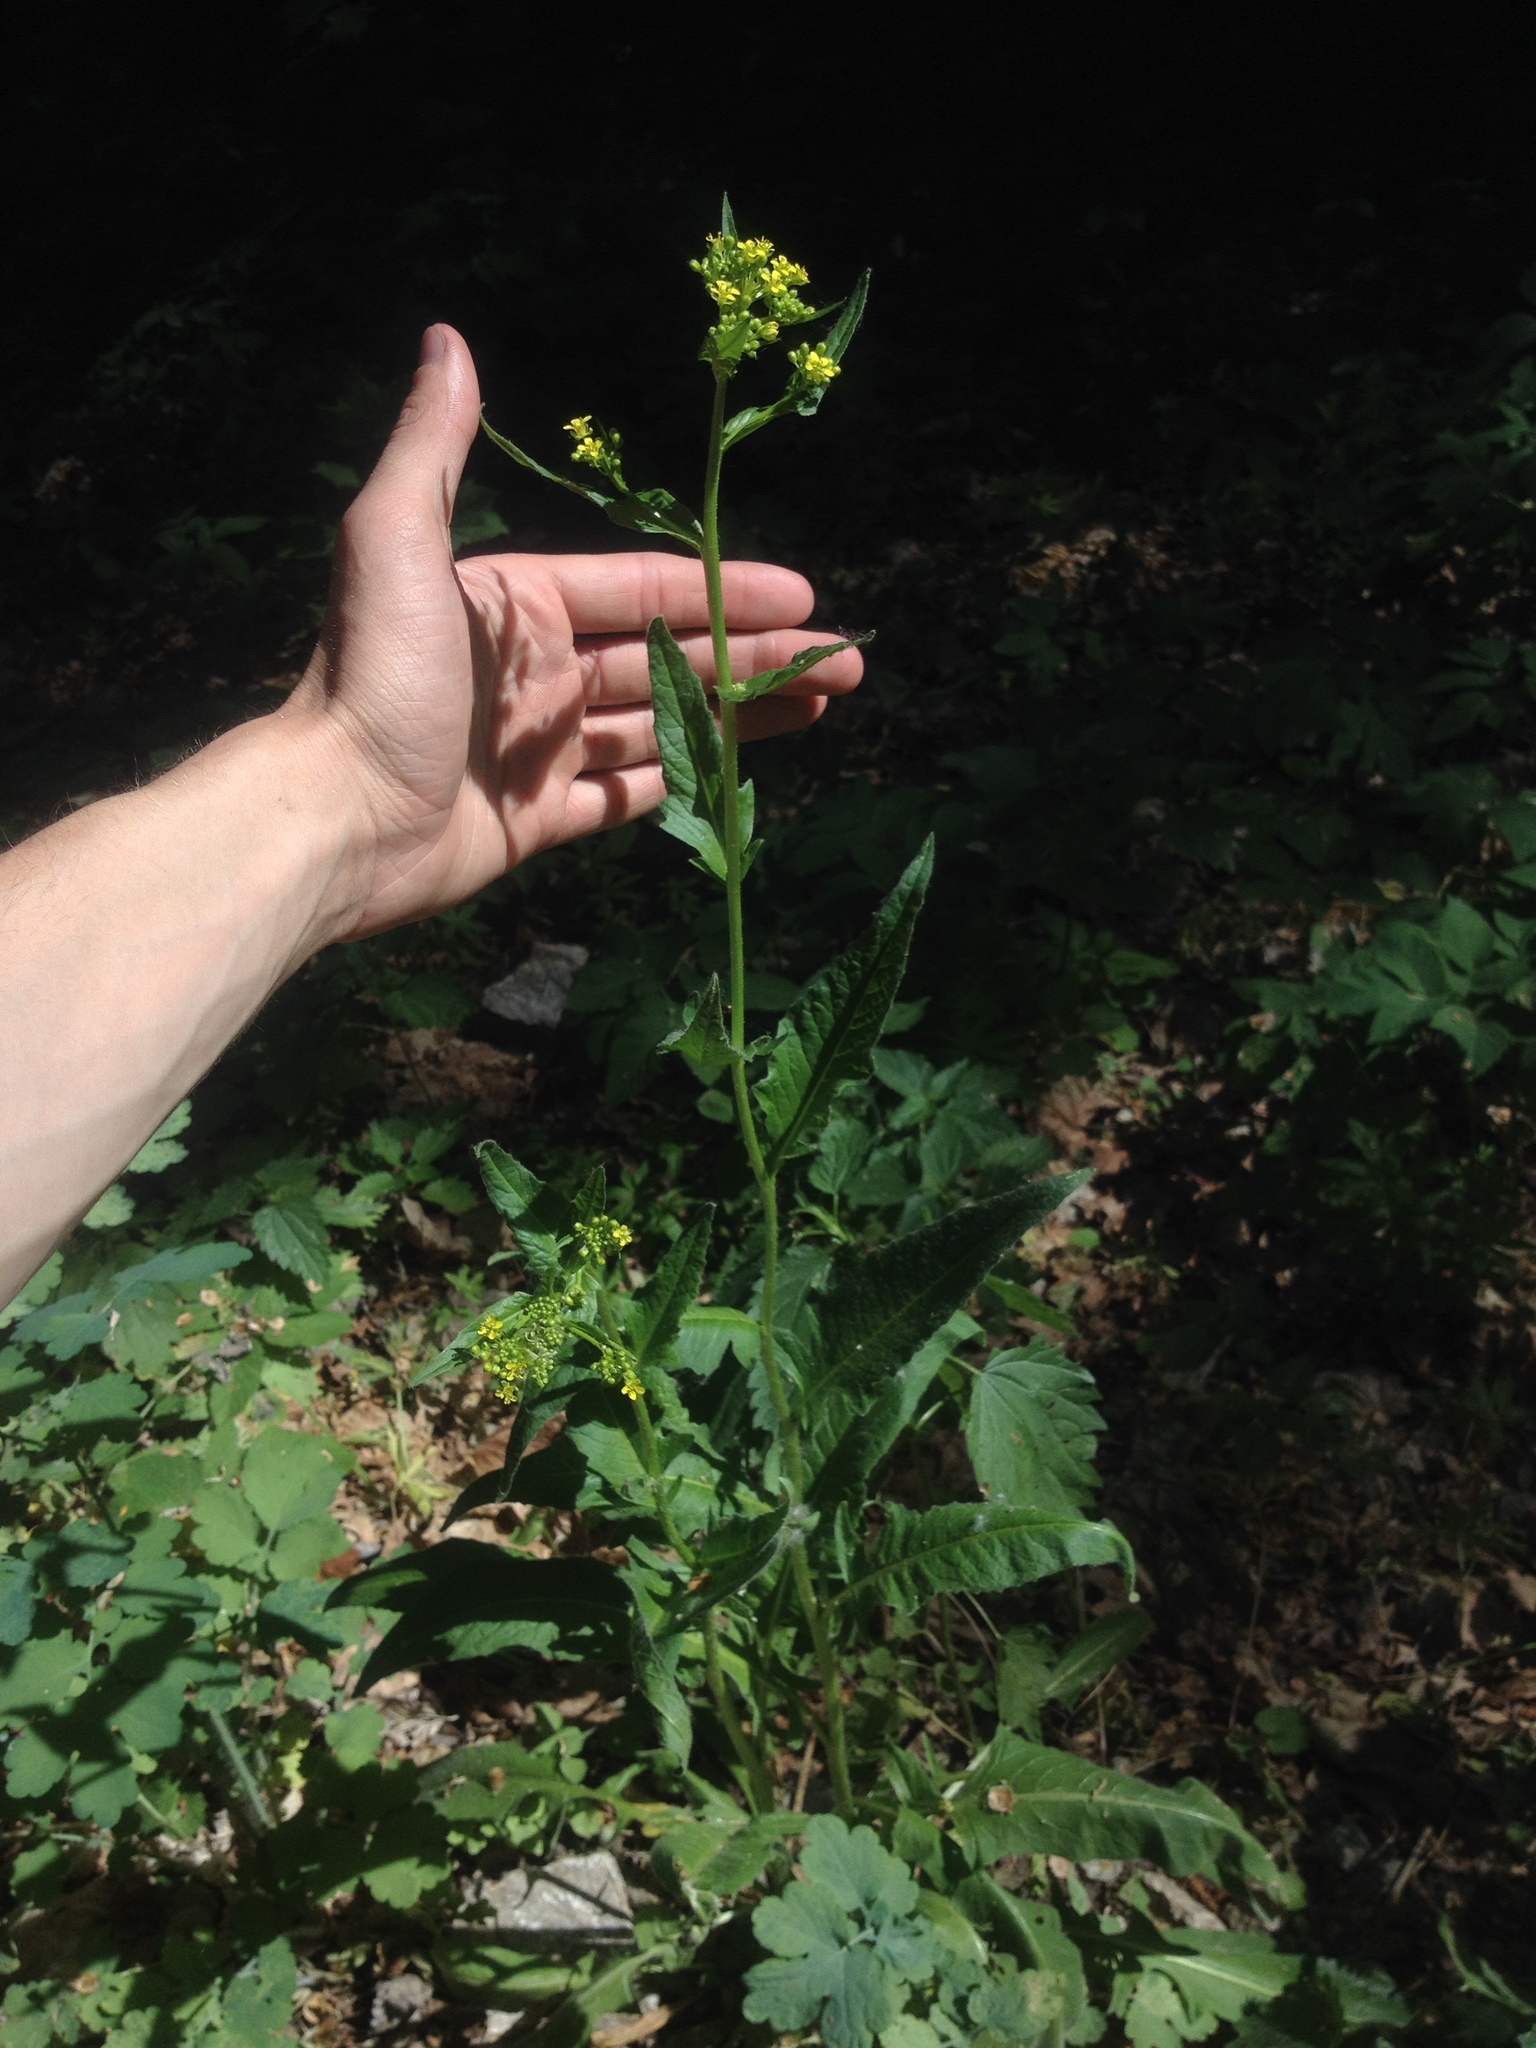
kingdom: Plantae
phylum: Tracheophyta
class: Magnoliopsida
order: Brassicales
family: Brassicaceae
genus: Bunias
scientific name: Bunias orientalis
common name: Warty-cabbage
